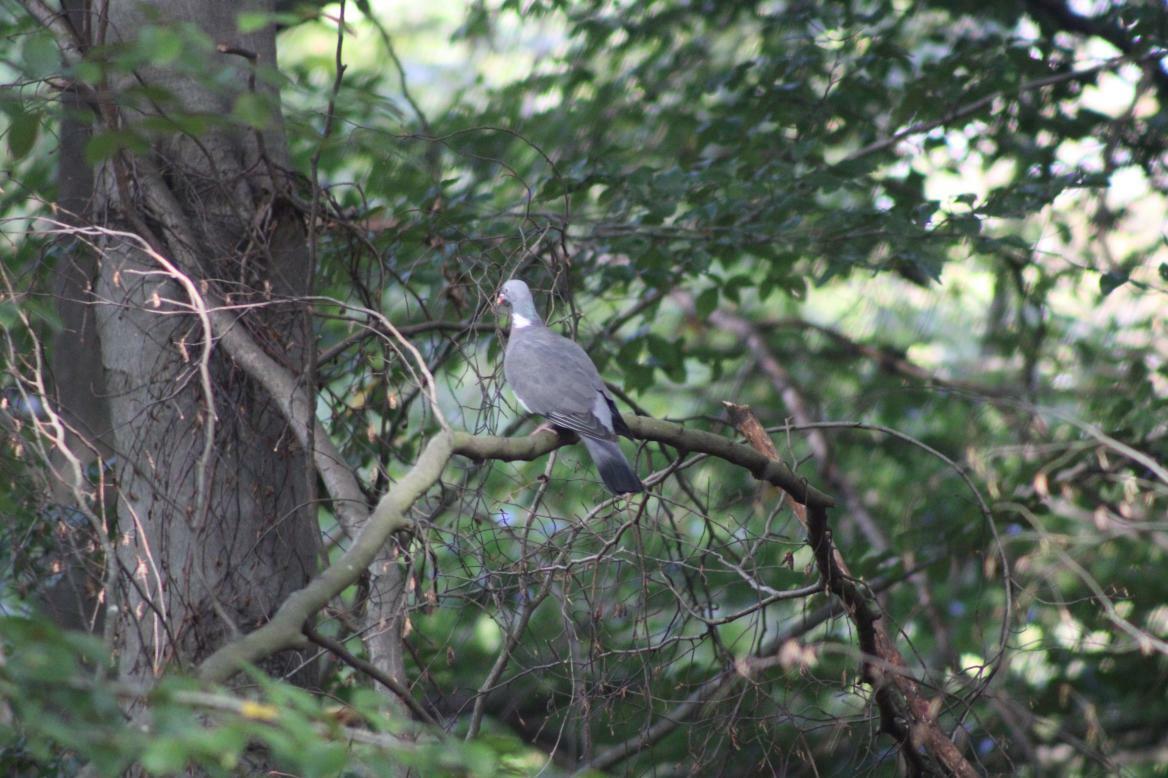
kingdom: Animalia
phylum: Chordata
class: Aves
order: Columbiformes
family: Columbidae
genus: Columba
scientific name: Columba palumbus
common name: Common wood pigeon
